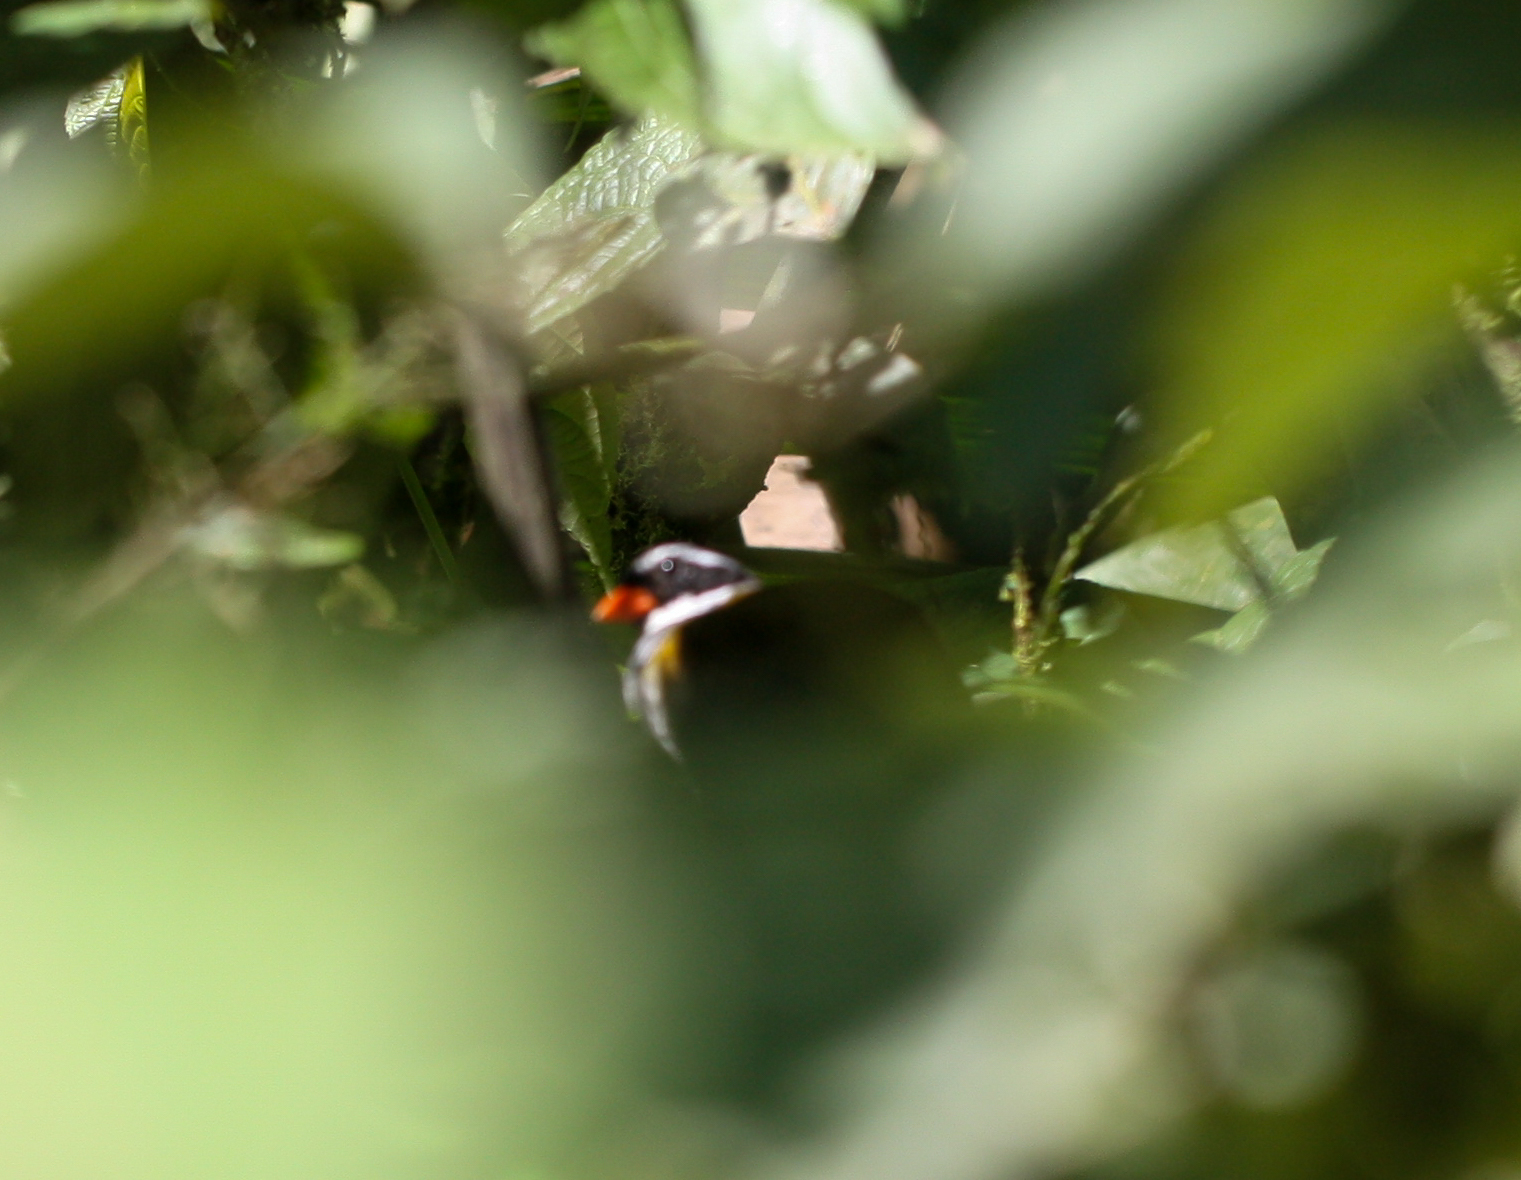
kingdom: Animalia
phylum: Chordata
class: Aves
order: Passeriformes
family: Passerellidae
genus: Arremon
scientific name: Arremon aurantiirostris
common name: Orange-billed sparrow
